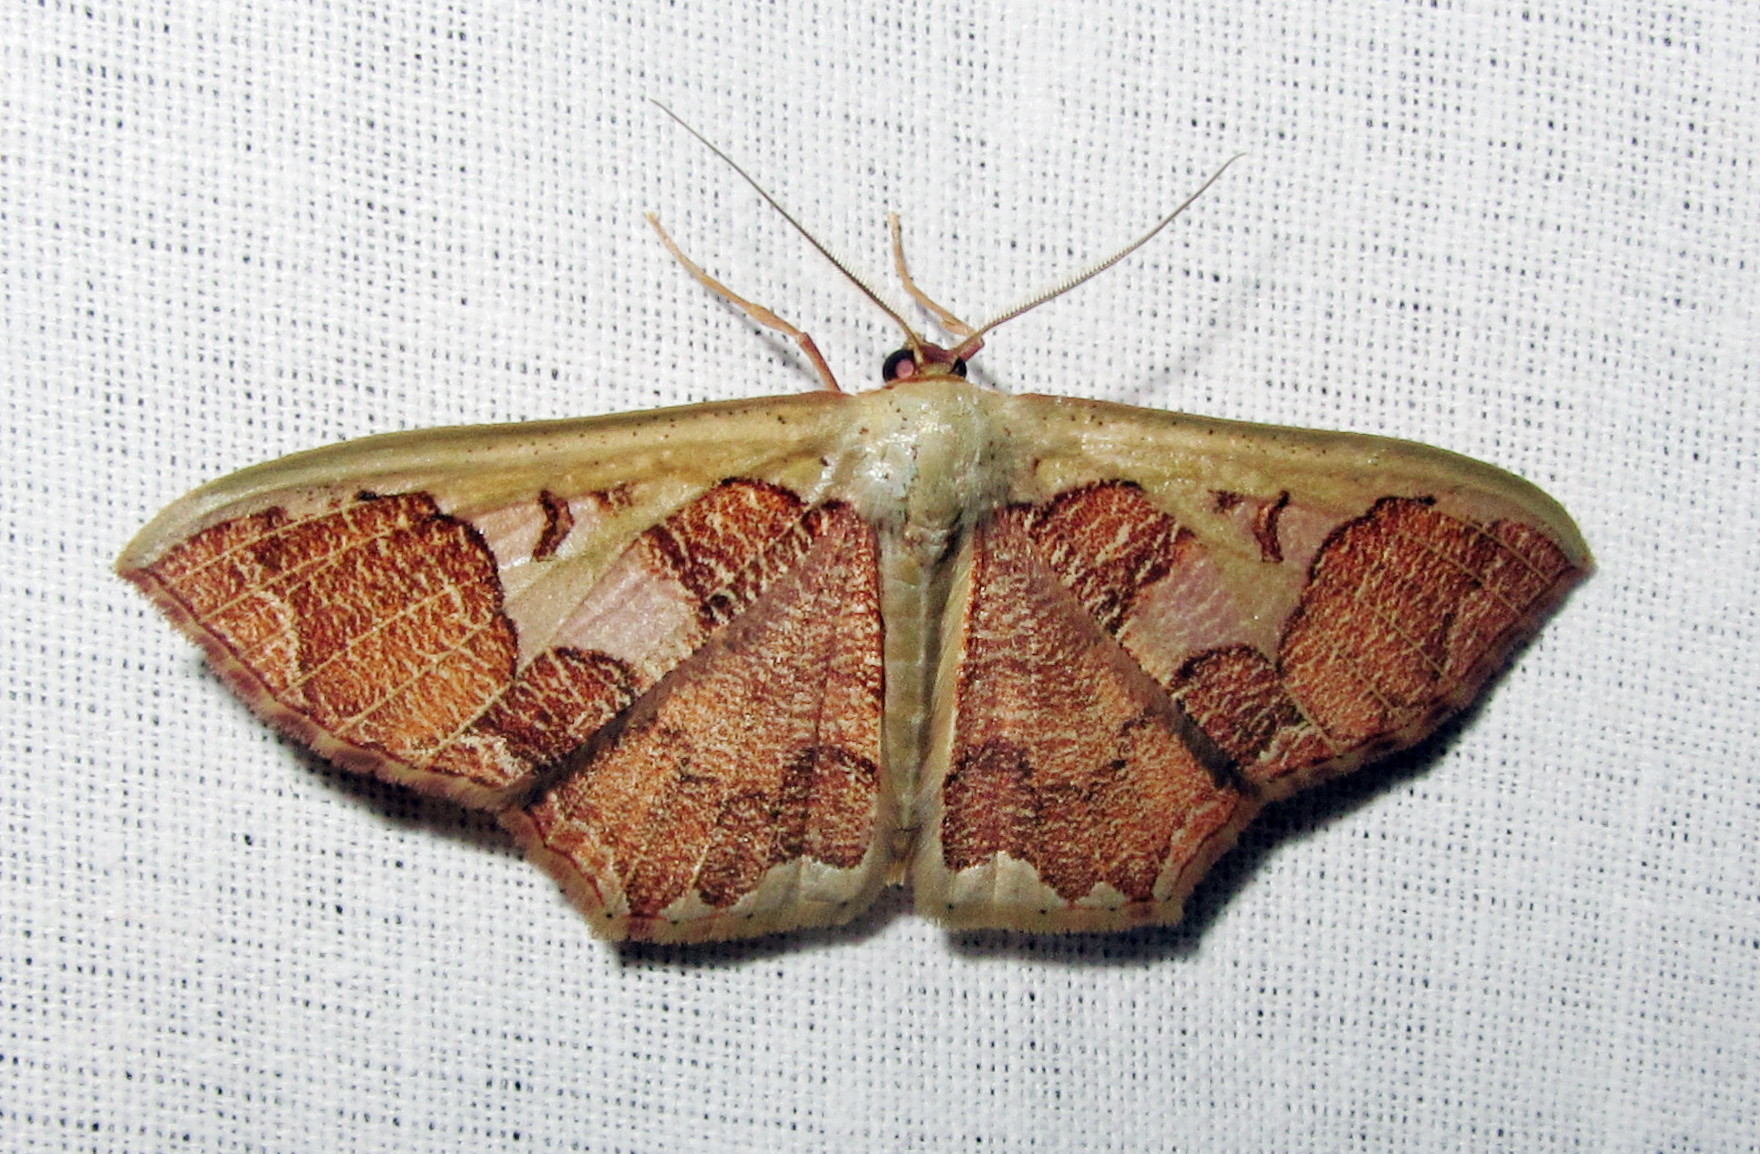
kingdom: Animalia
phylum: Arthropoda
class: Insecta
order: Lepidoptera
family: Geometridae
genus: Zythos
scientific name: Zythos avellanea
